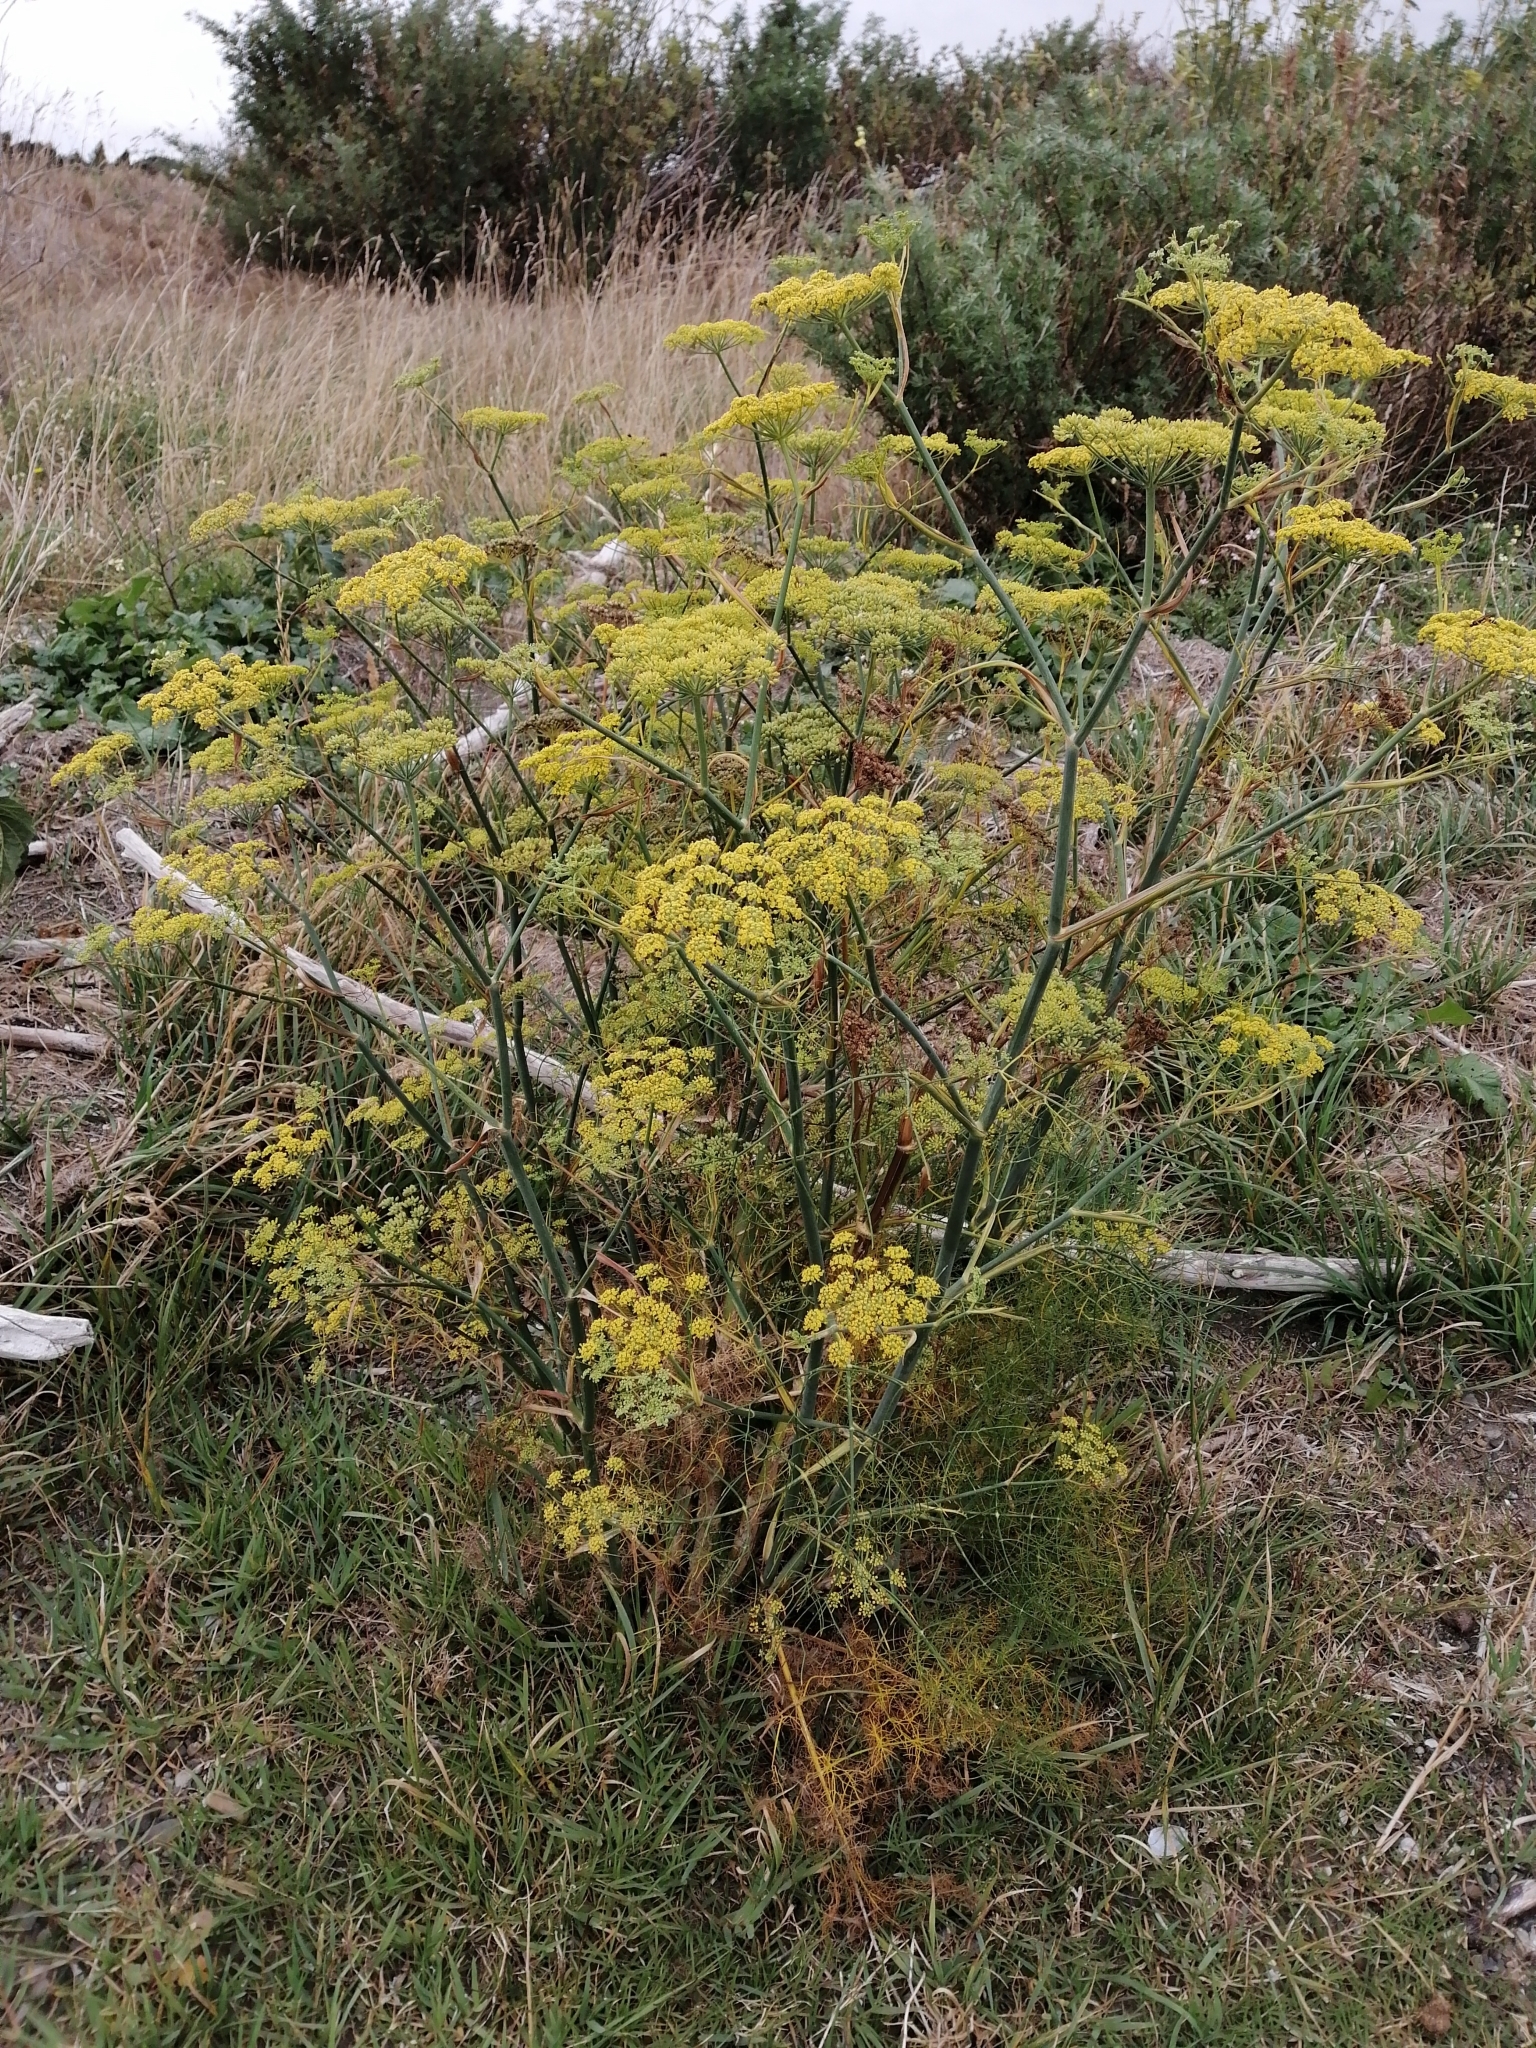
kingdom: Plantae
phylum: Tracheophyta
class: Magnoliopsida
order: Apiales
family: Apiaceae
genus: Foeniculum
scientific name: Foeniculum vulgare
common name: Fennel
